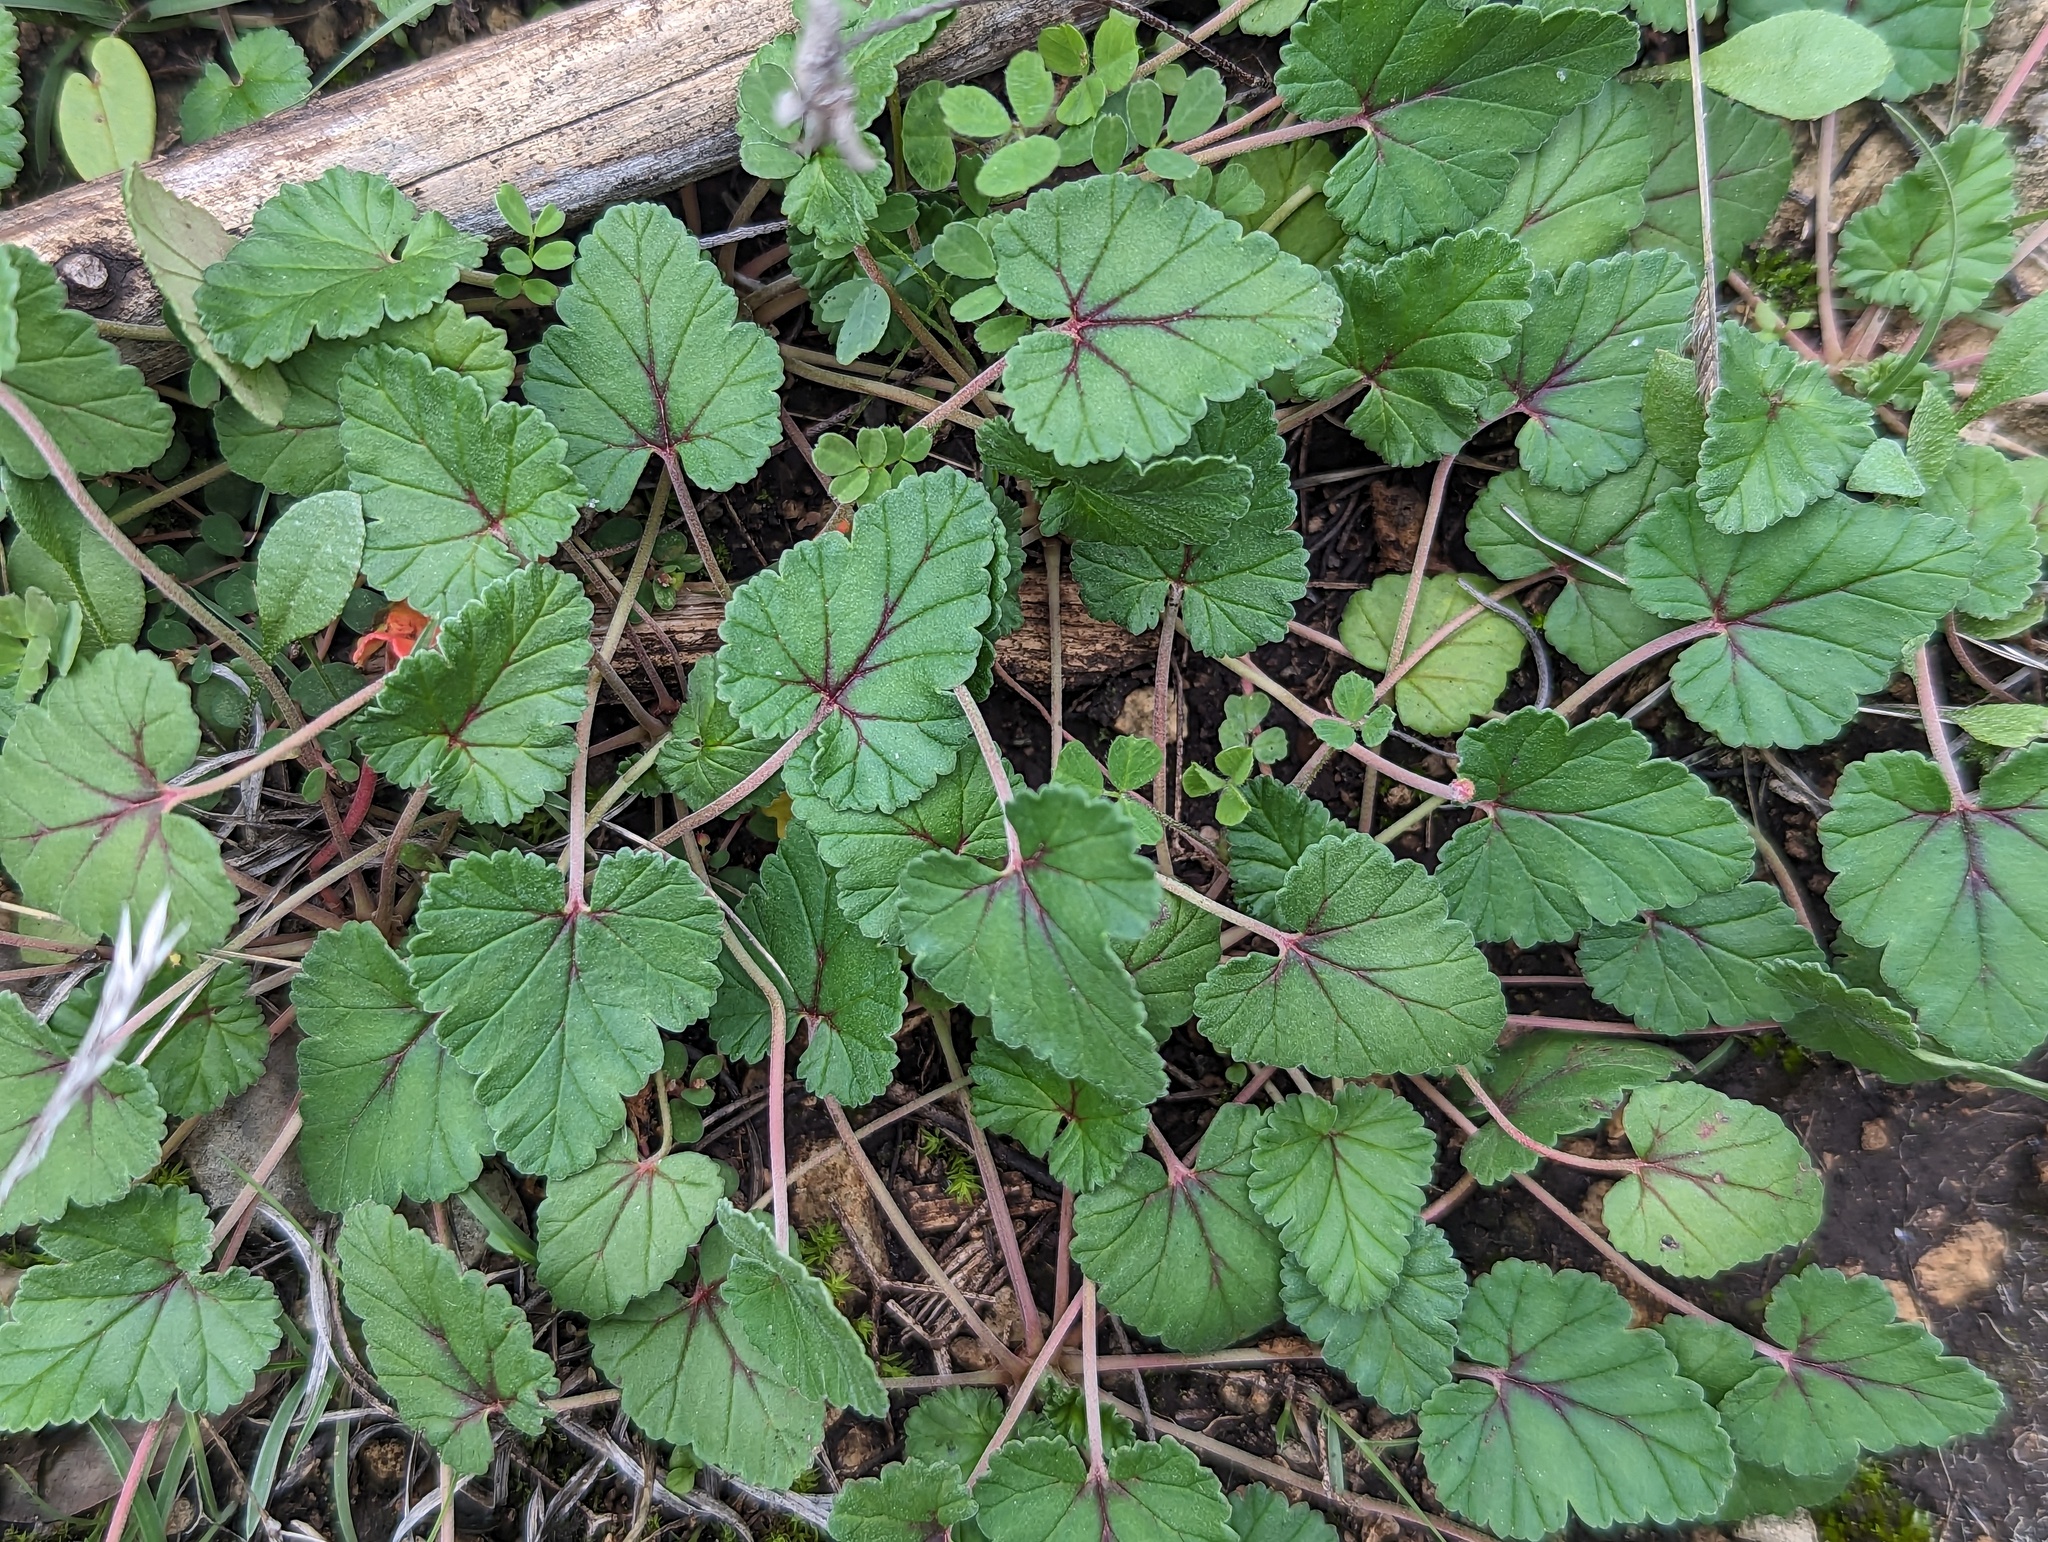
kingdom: Plantae
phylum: Tracheophyta
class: Magnoliopsida
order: Geraniales
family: Geraniaceae
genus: Erodium
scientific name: Erodium texanum
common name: Texas stork's-bill
